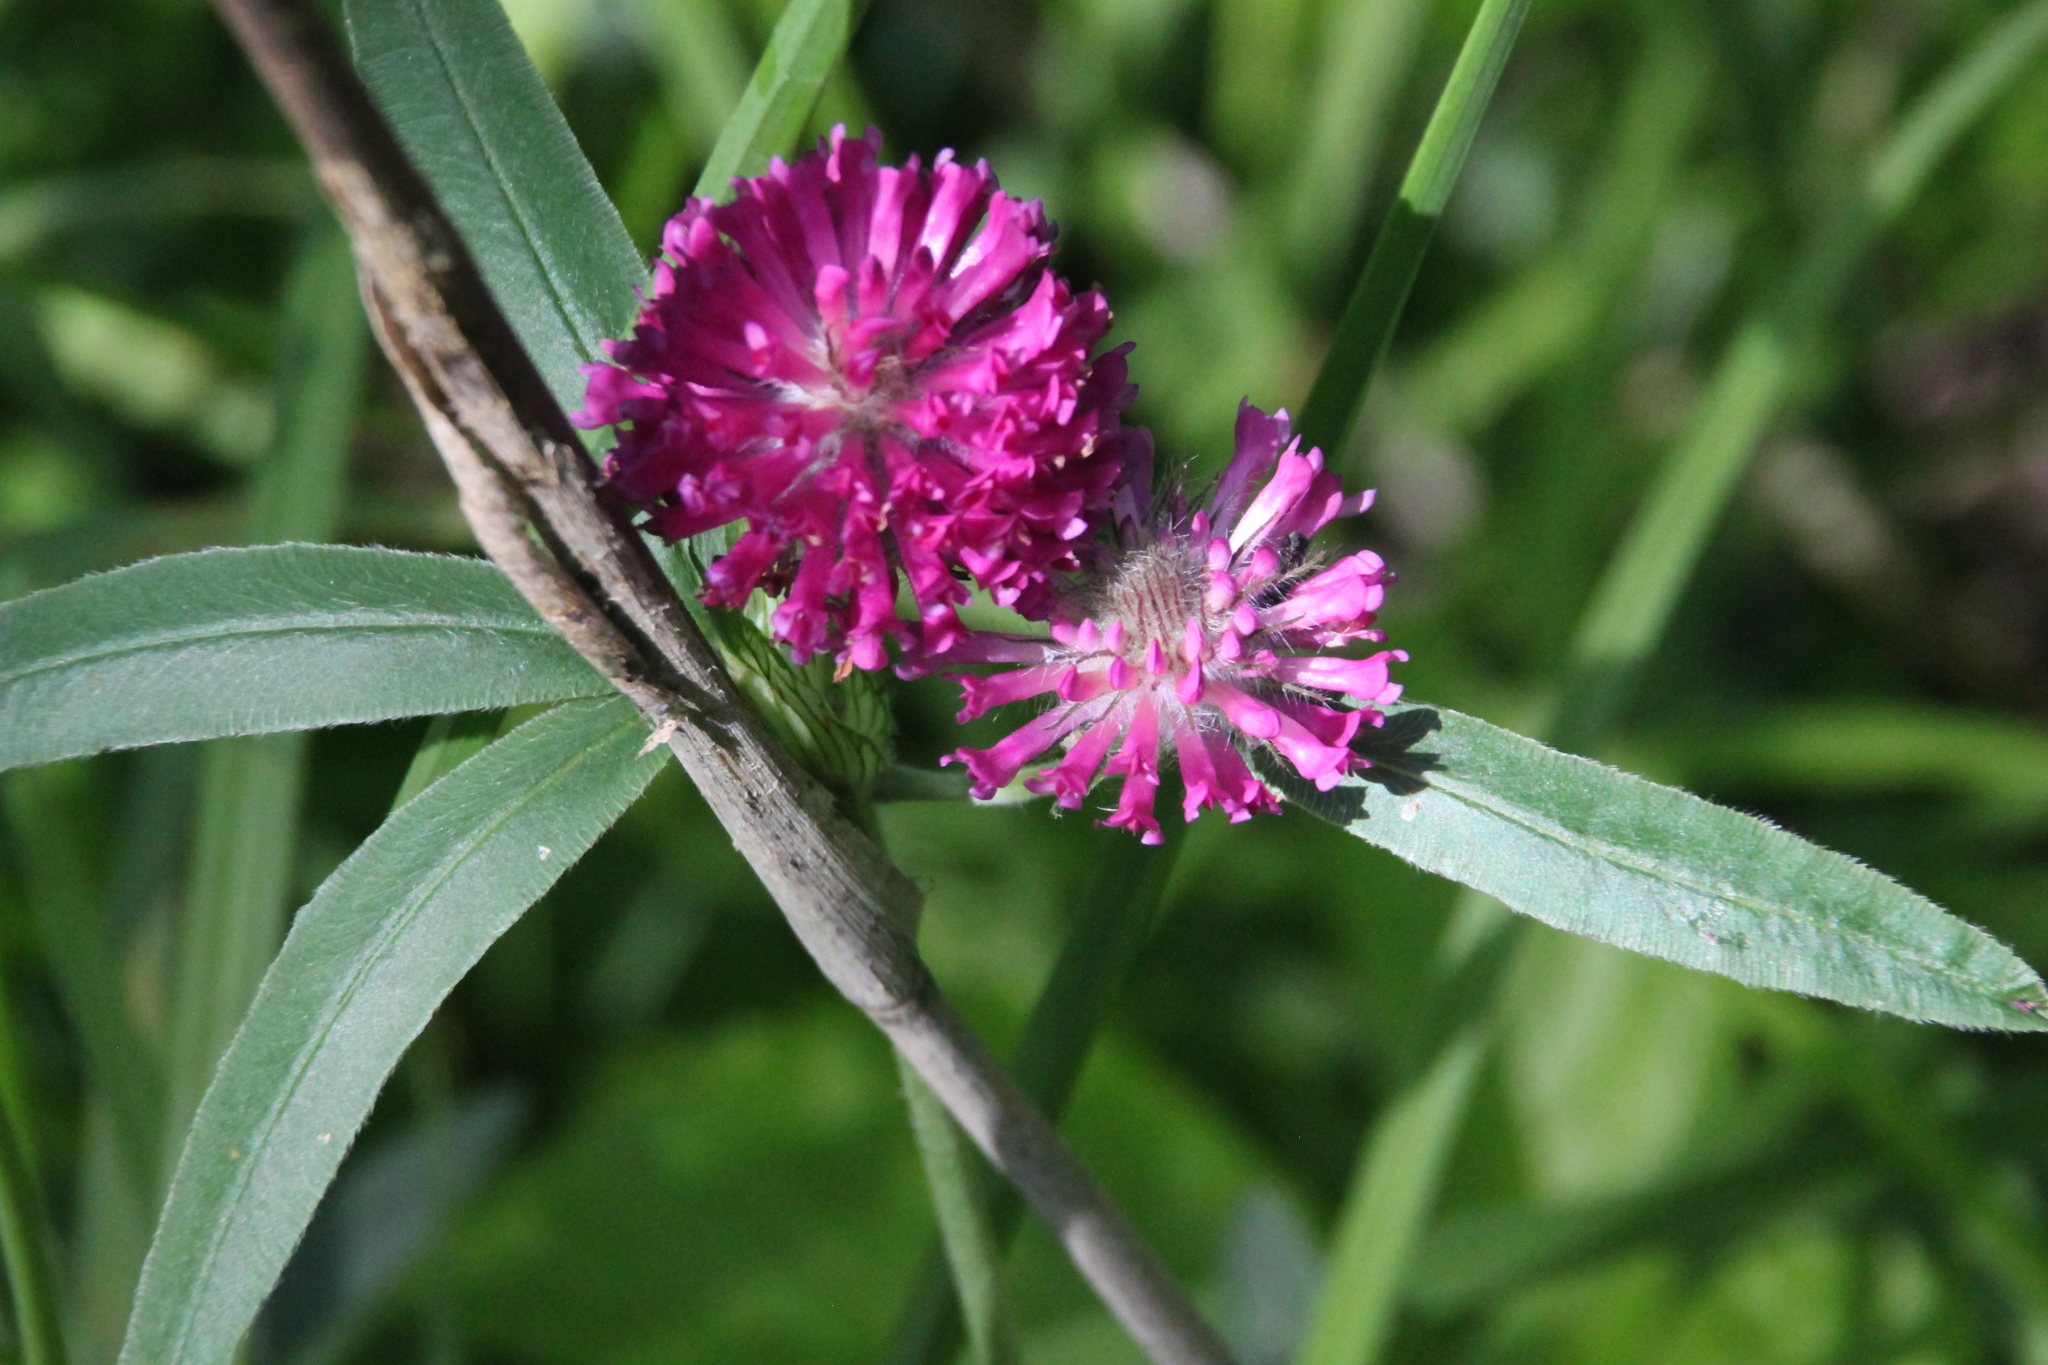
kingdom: Plantae
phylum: Tracheophyta
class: Magnoliopsida
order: Fabales
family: Fabaceae
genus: Trifolium
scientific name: Trifolium alpestre
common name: Owl-head clover
